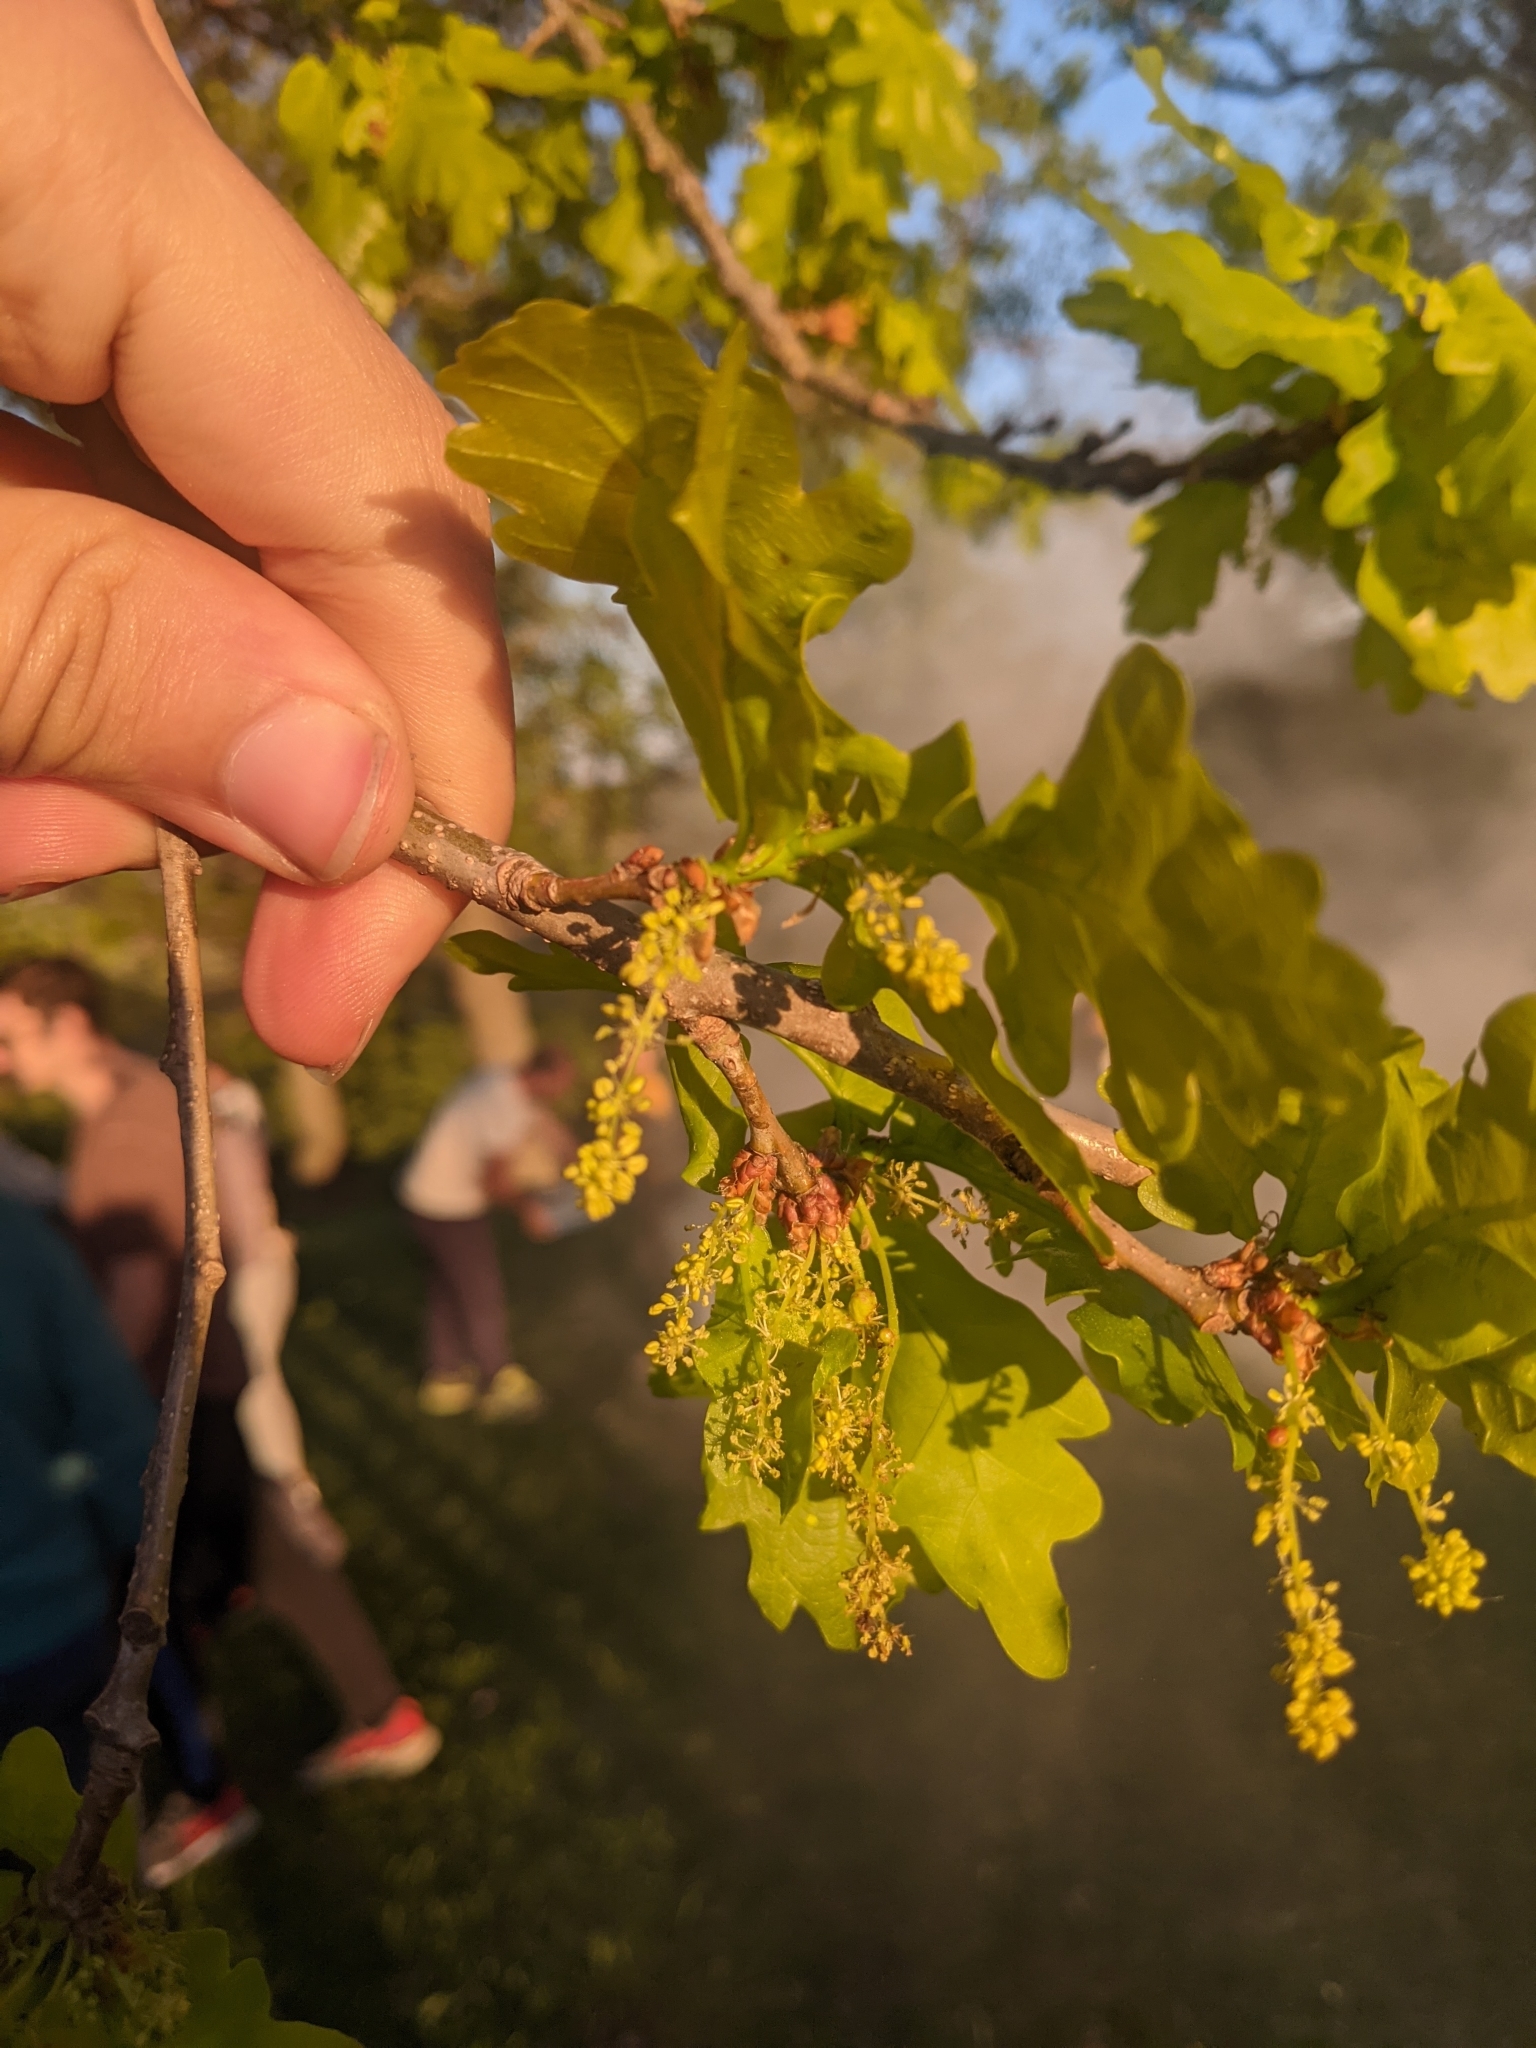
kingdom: Plantae
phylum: Tracheophyta
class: Magnoliopsida
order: Fagales
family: Fagaceae
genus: Quercus
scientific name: Quercus robur
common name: Pedunculate oak
